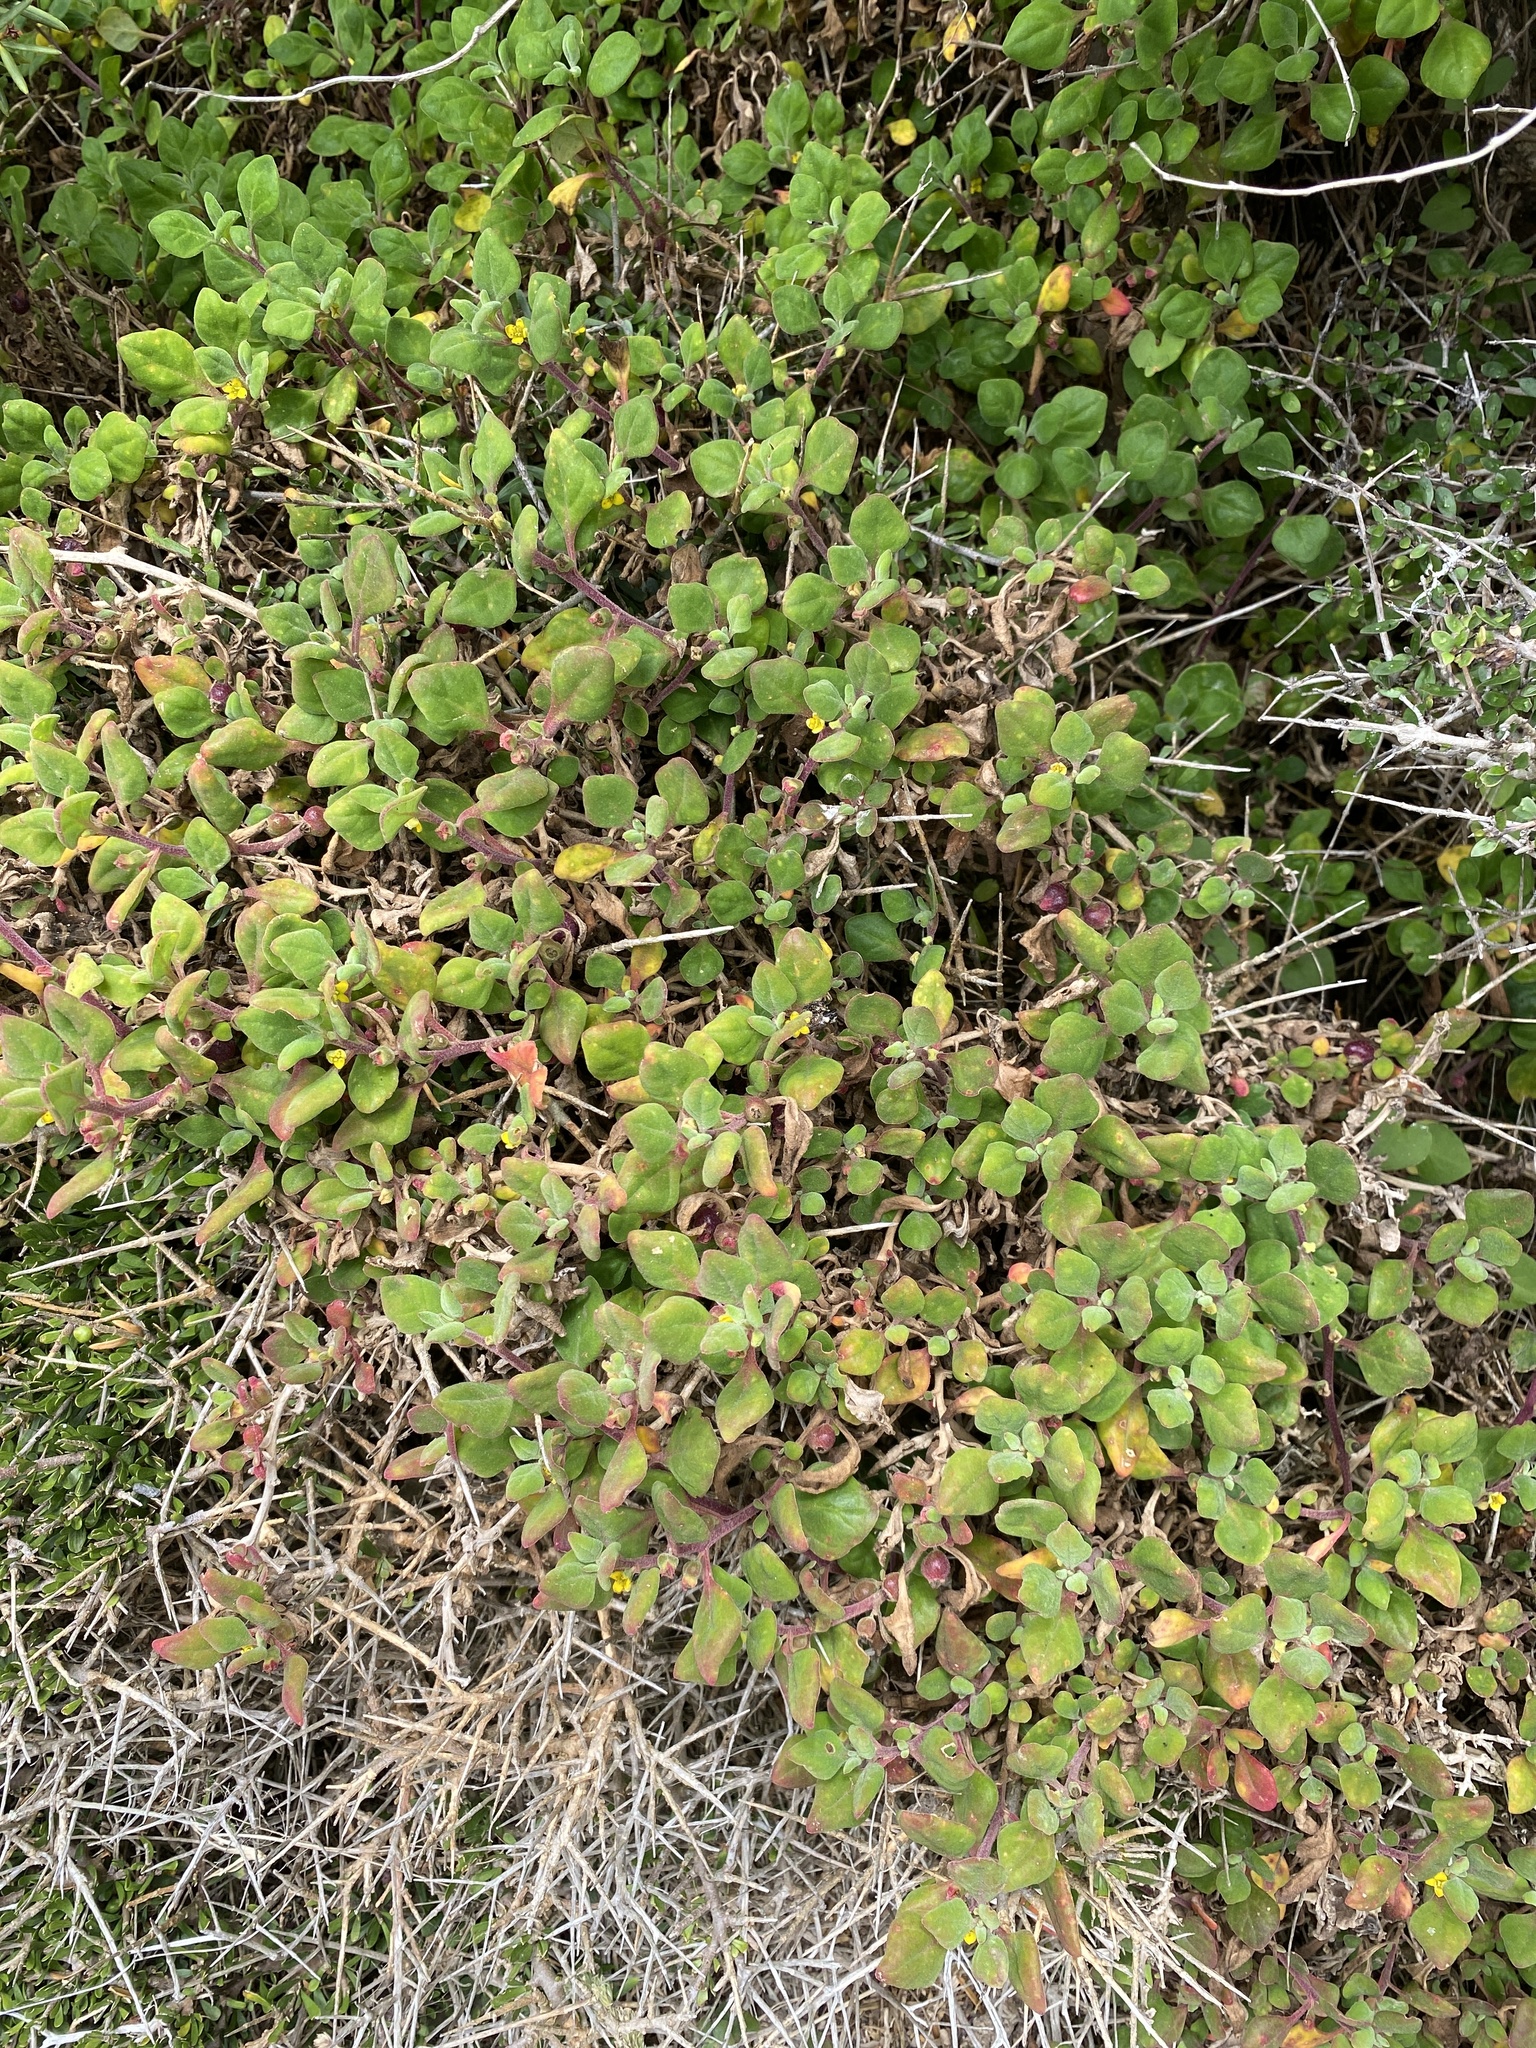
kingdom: Plantae
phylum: Tracheophyta
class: Magnoliopsida
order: Caryophyllales
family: Aizoaceae
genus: Tetragonia
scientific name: Tetragonia implexicoma
